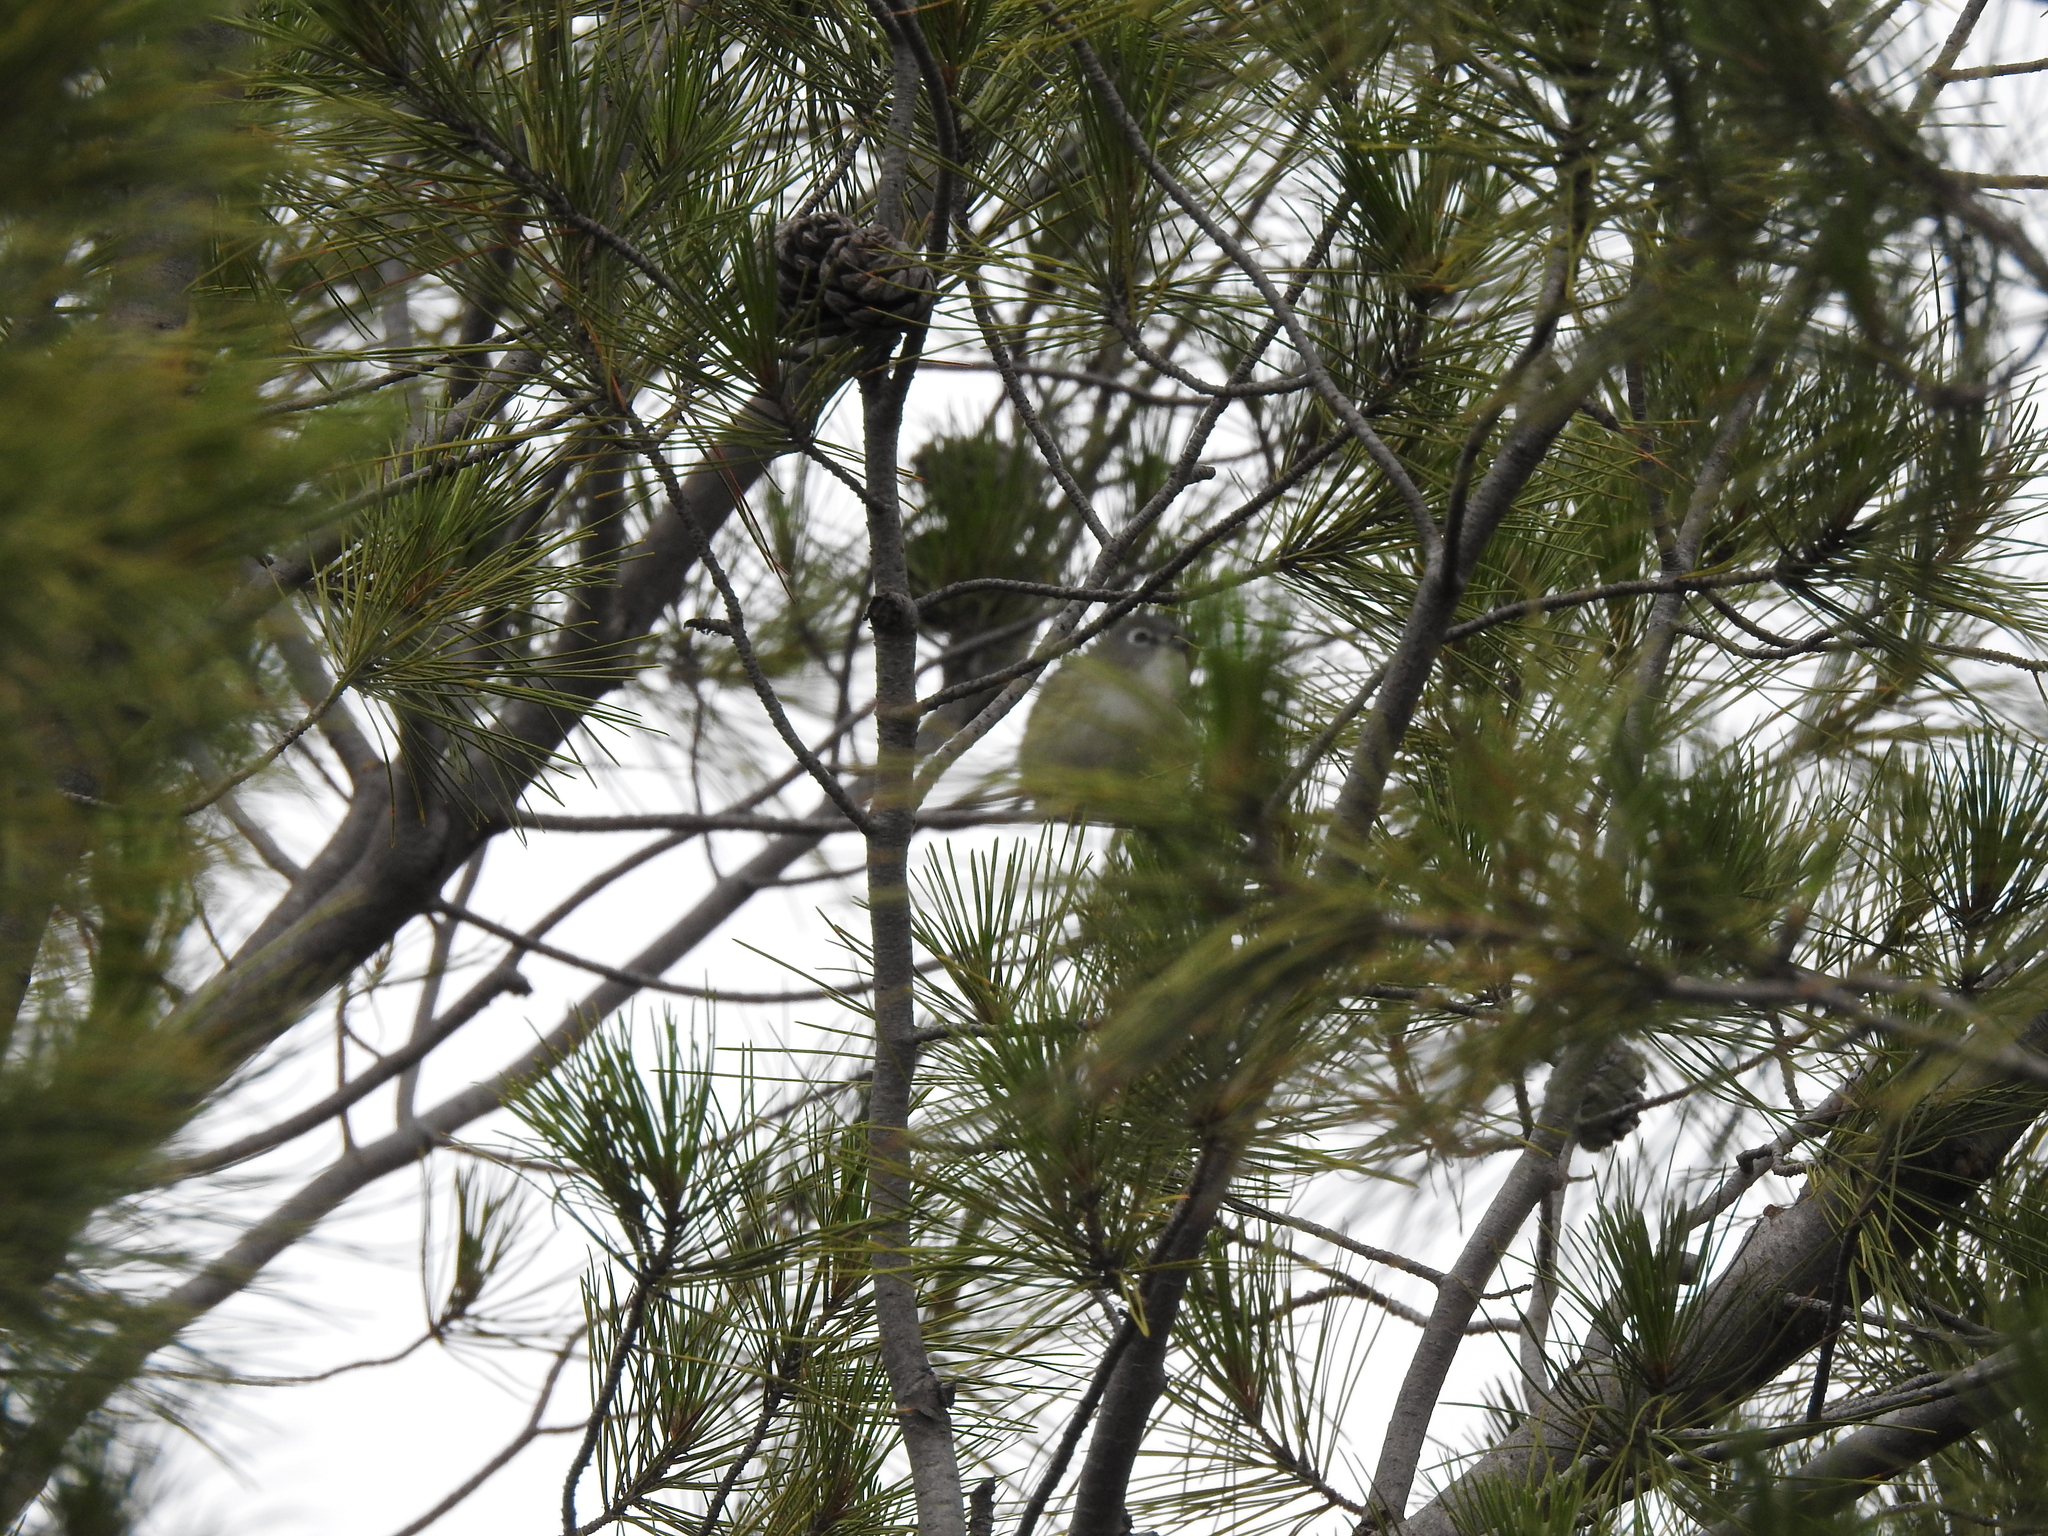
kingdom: Animalia
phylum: Chordata
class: Aves
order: Passeriformes
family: Vireonidae
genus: Vireo
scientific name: Vireo cassinii
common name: Cassin's vireo
